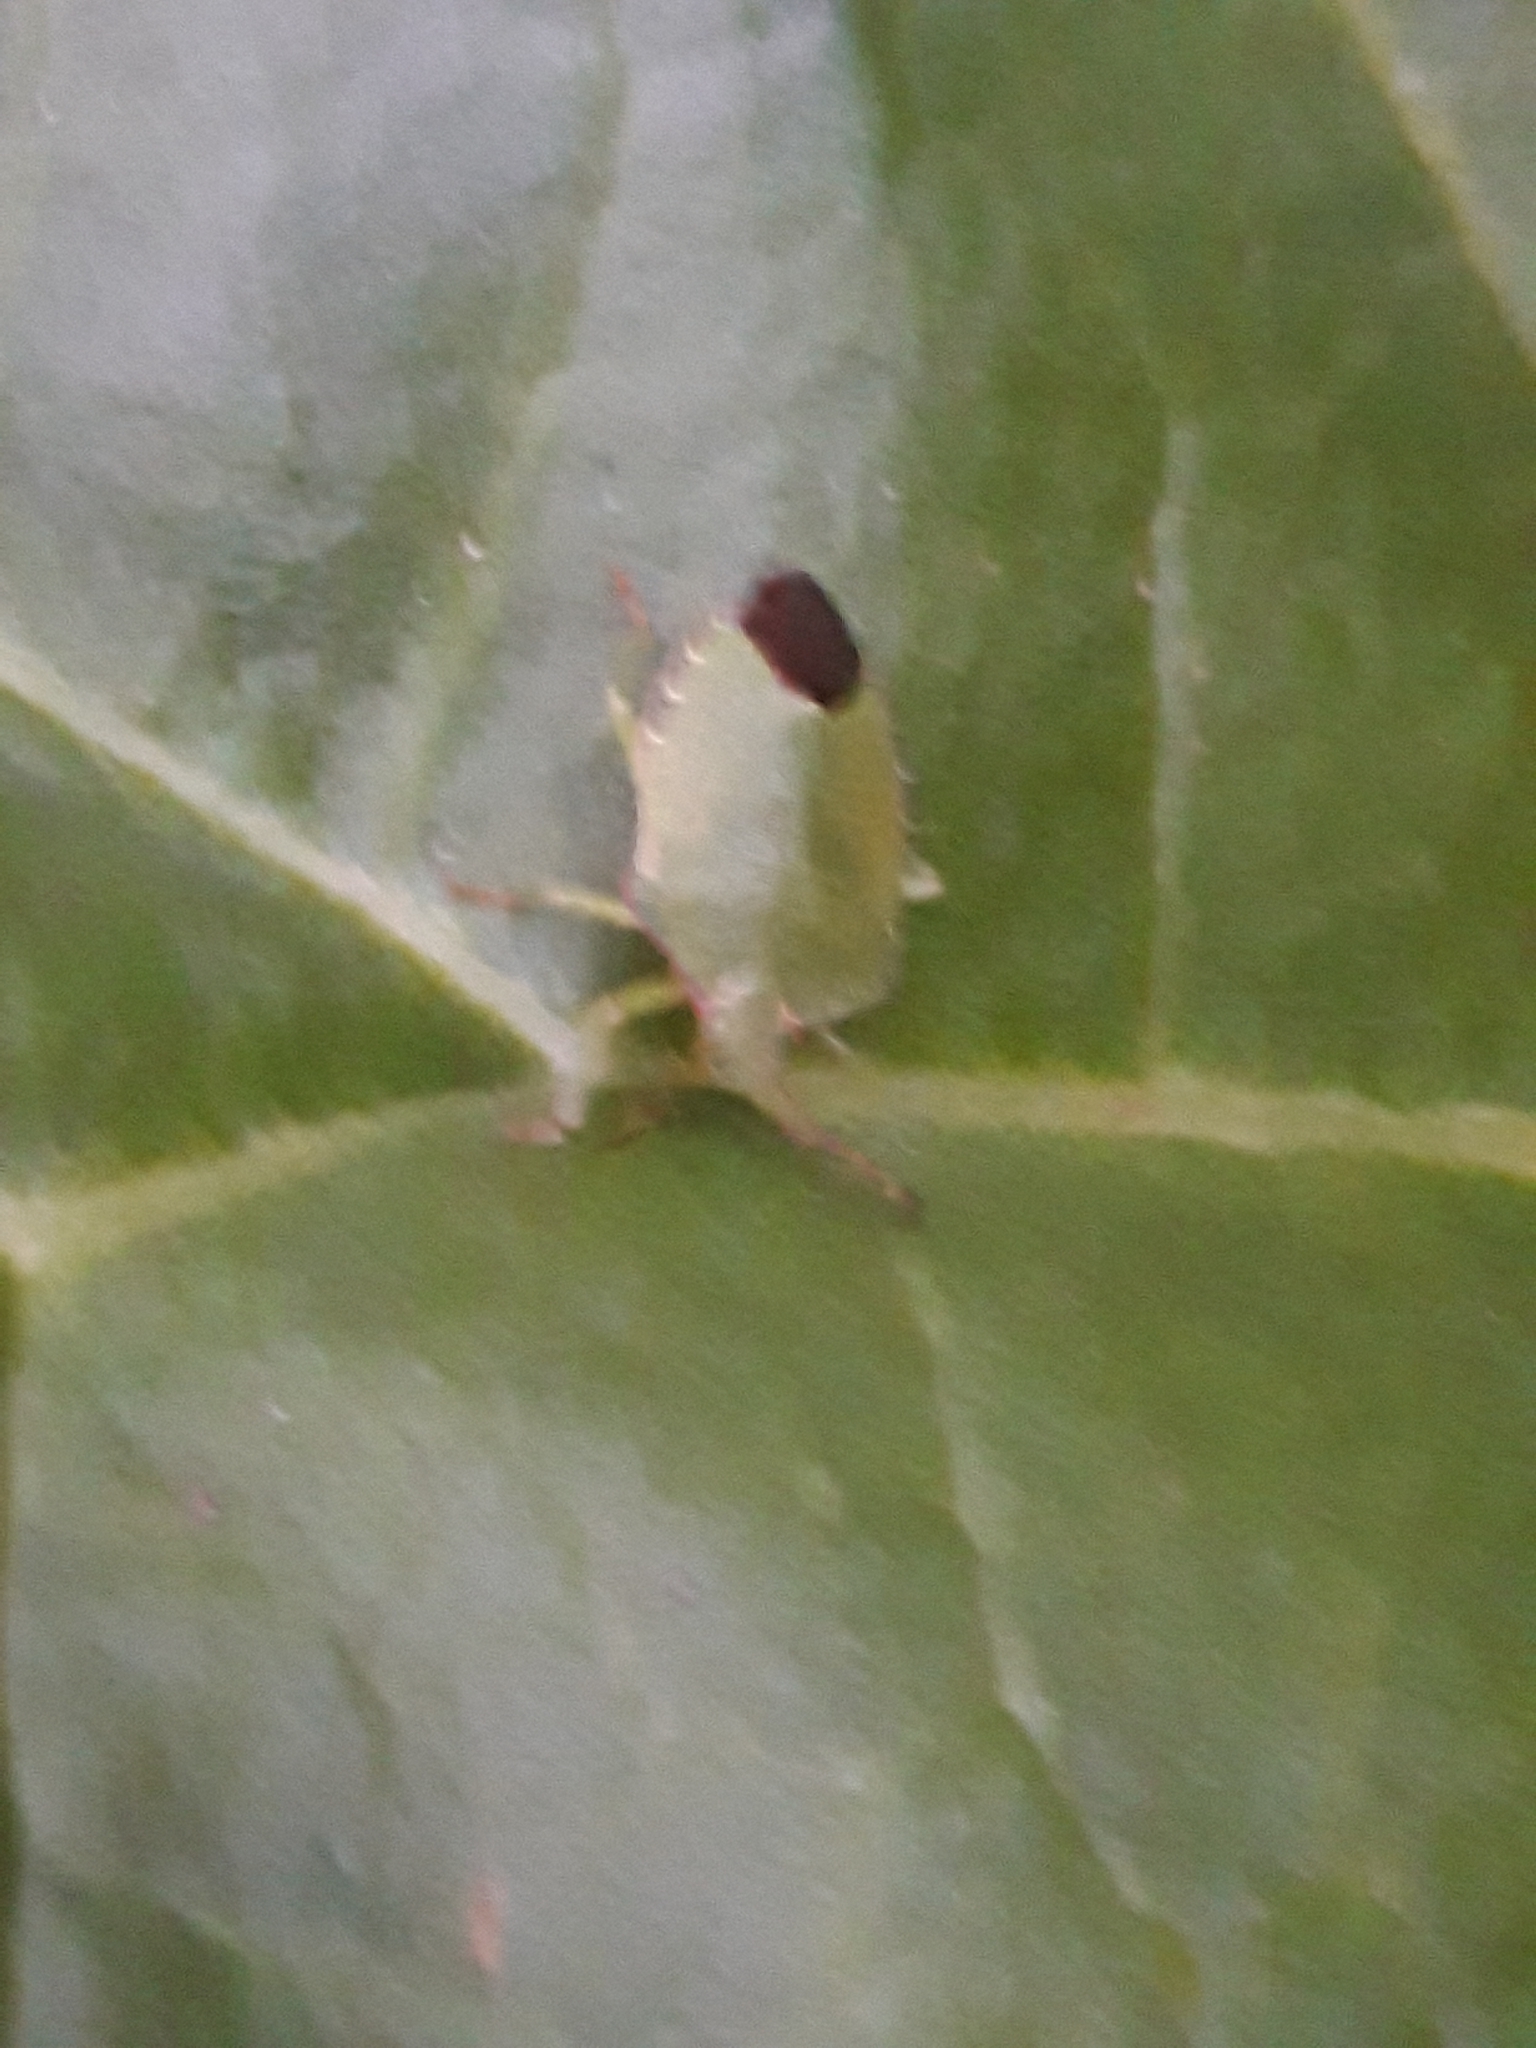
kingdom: Animalia
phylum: Arthropoda
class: Insecta
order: Hemiptera
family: Pentatomidae
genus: Palomena
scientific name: Palomena prasina
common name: Green shieldbug
